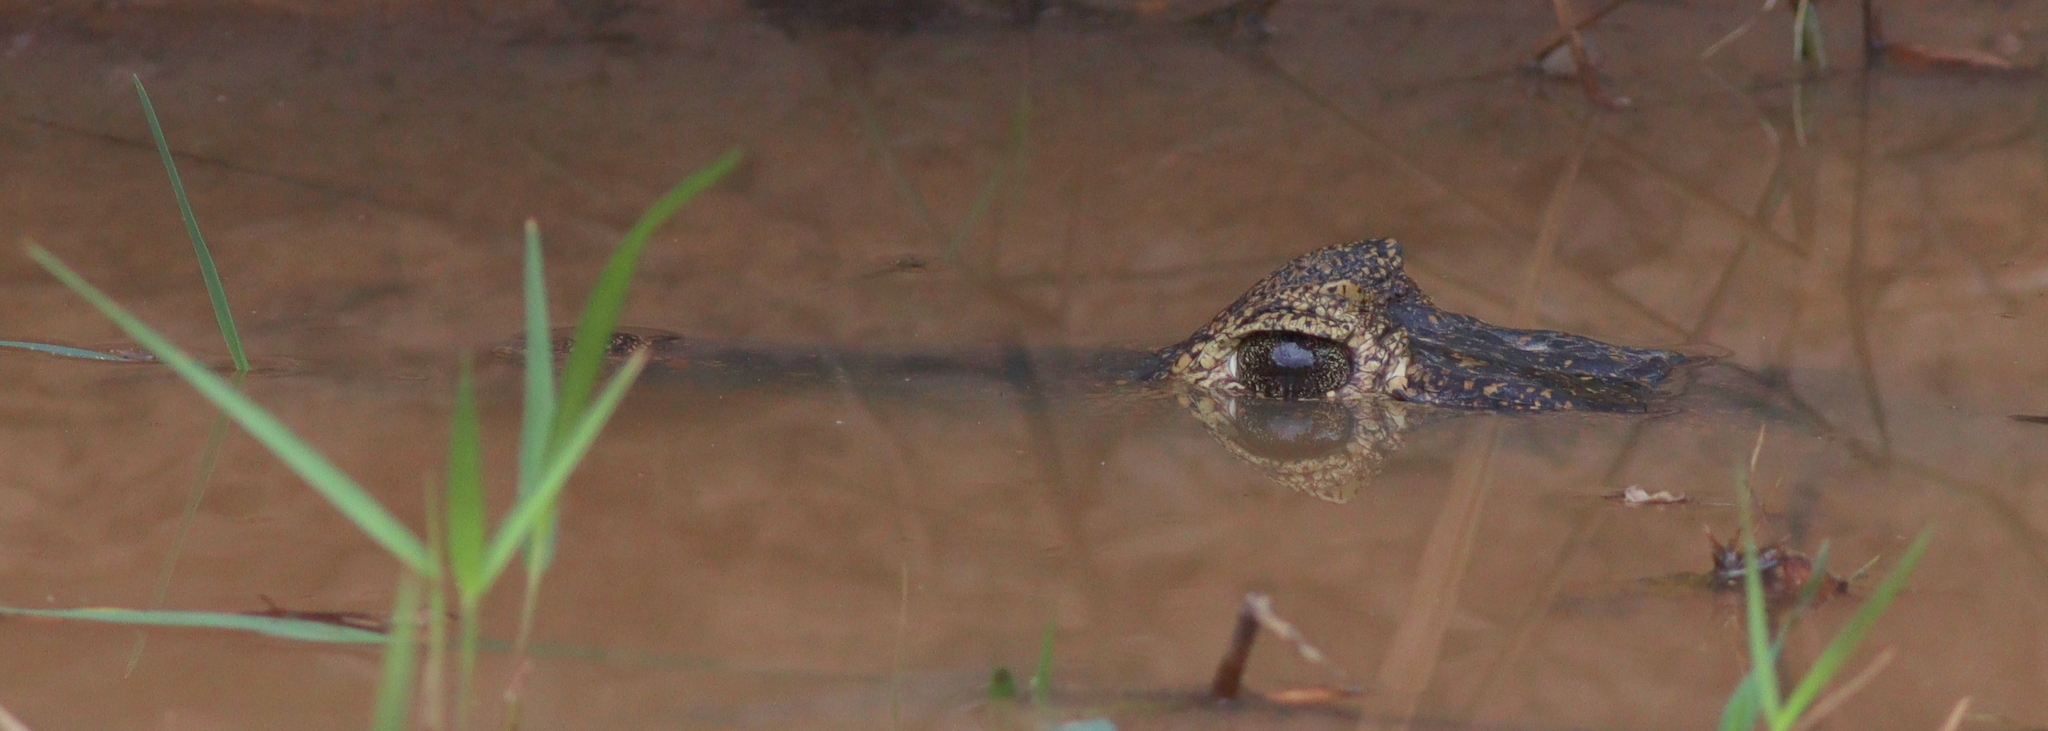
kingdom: Animalia
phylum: Chordata
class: Crocodylia
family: Alligatoridae
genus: Caiman
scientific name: Caiman yacare
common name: Yacare caiman
